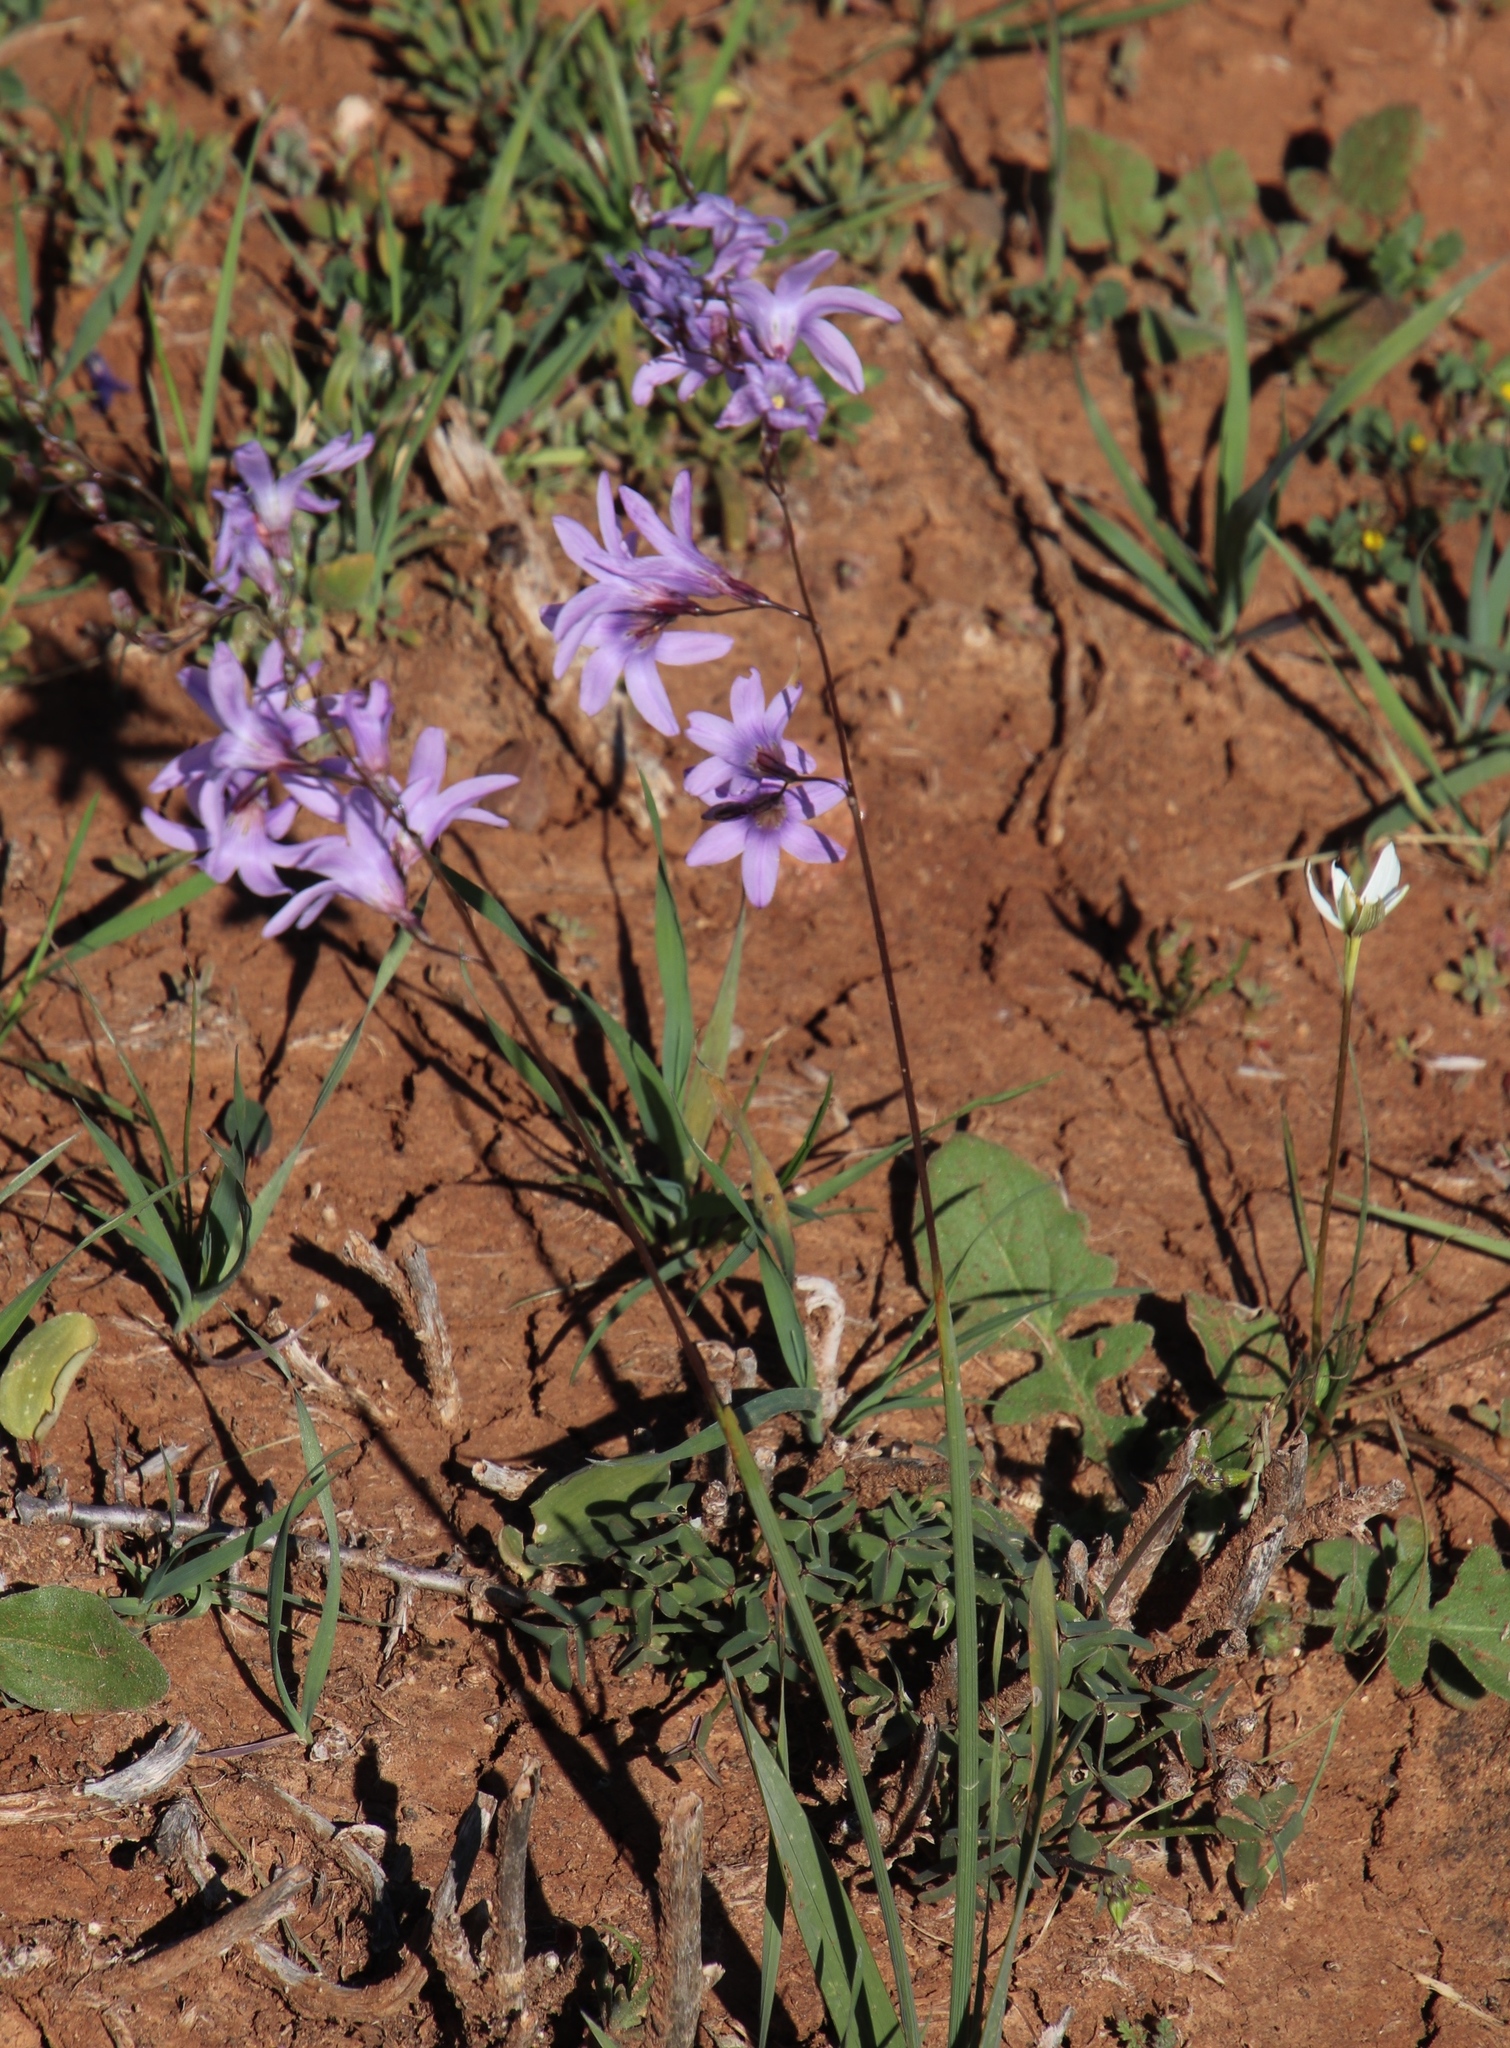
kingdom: Plantae
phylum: Tracheophyta
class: Liliopsida
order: Asparagales
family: Iridaceae
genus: Ixia
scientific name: Ixia rapunculoides
